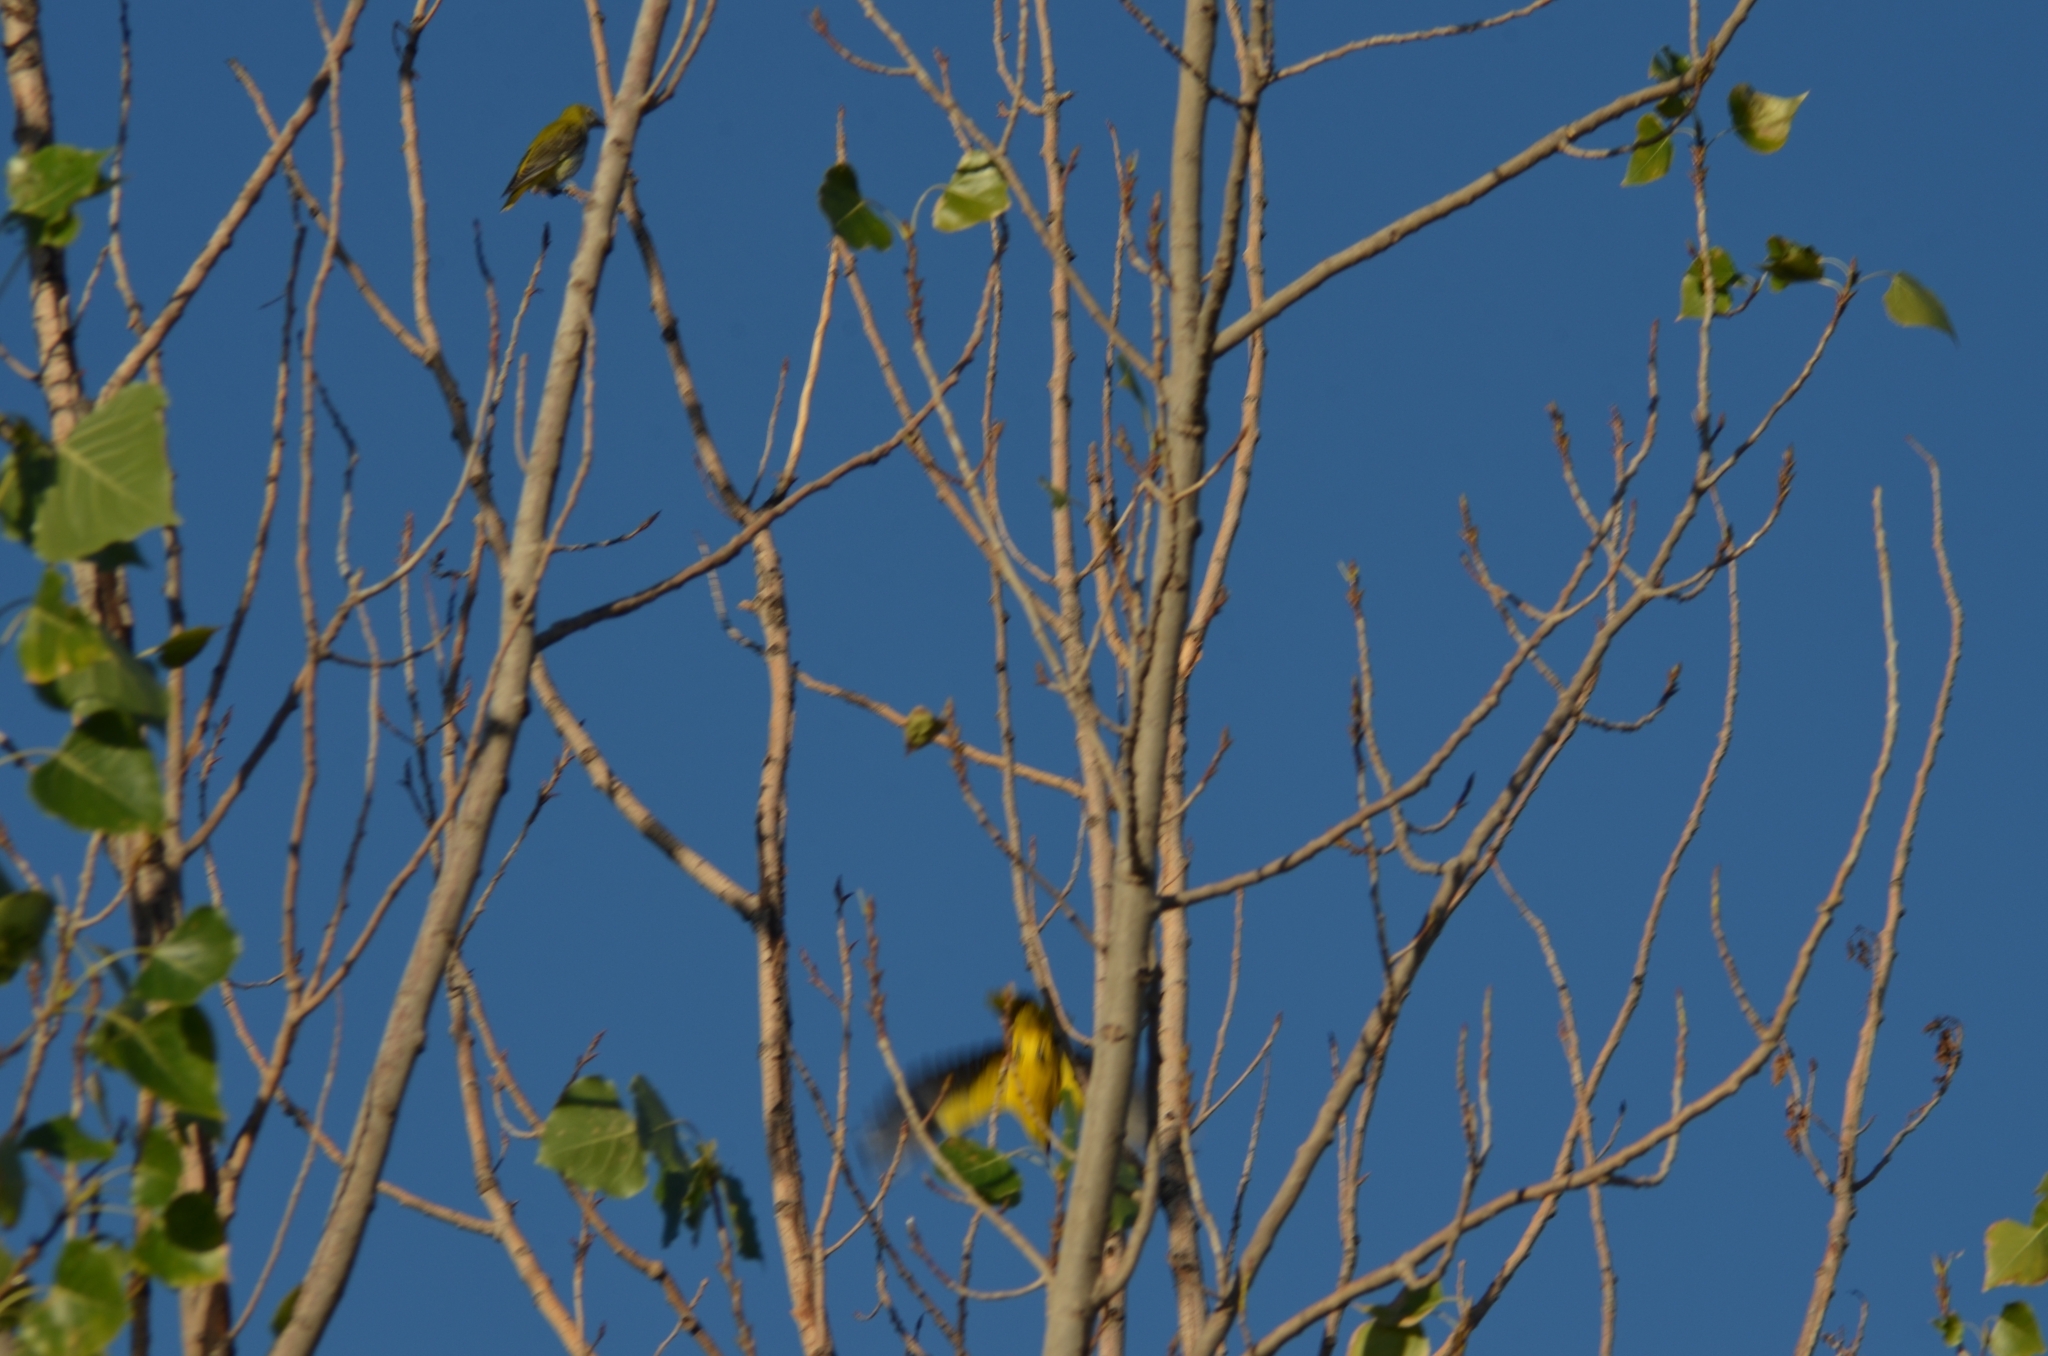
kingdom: Animalia
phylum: Chordata
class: Aves
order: Passeriformes
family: Oriolidae
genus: Oriolus
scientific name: Oriolus oriolus
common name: Eurasian golden oriole
